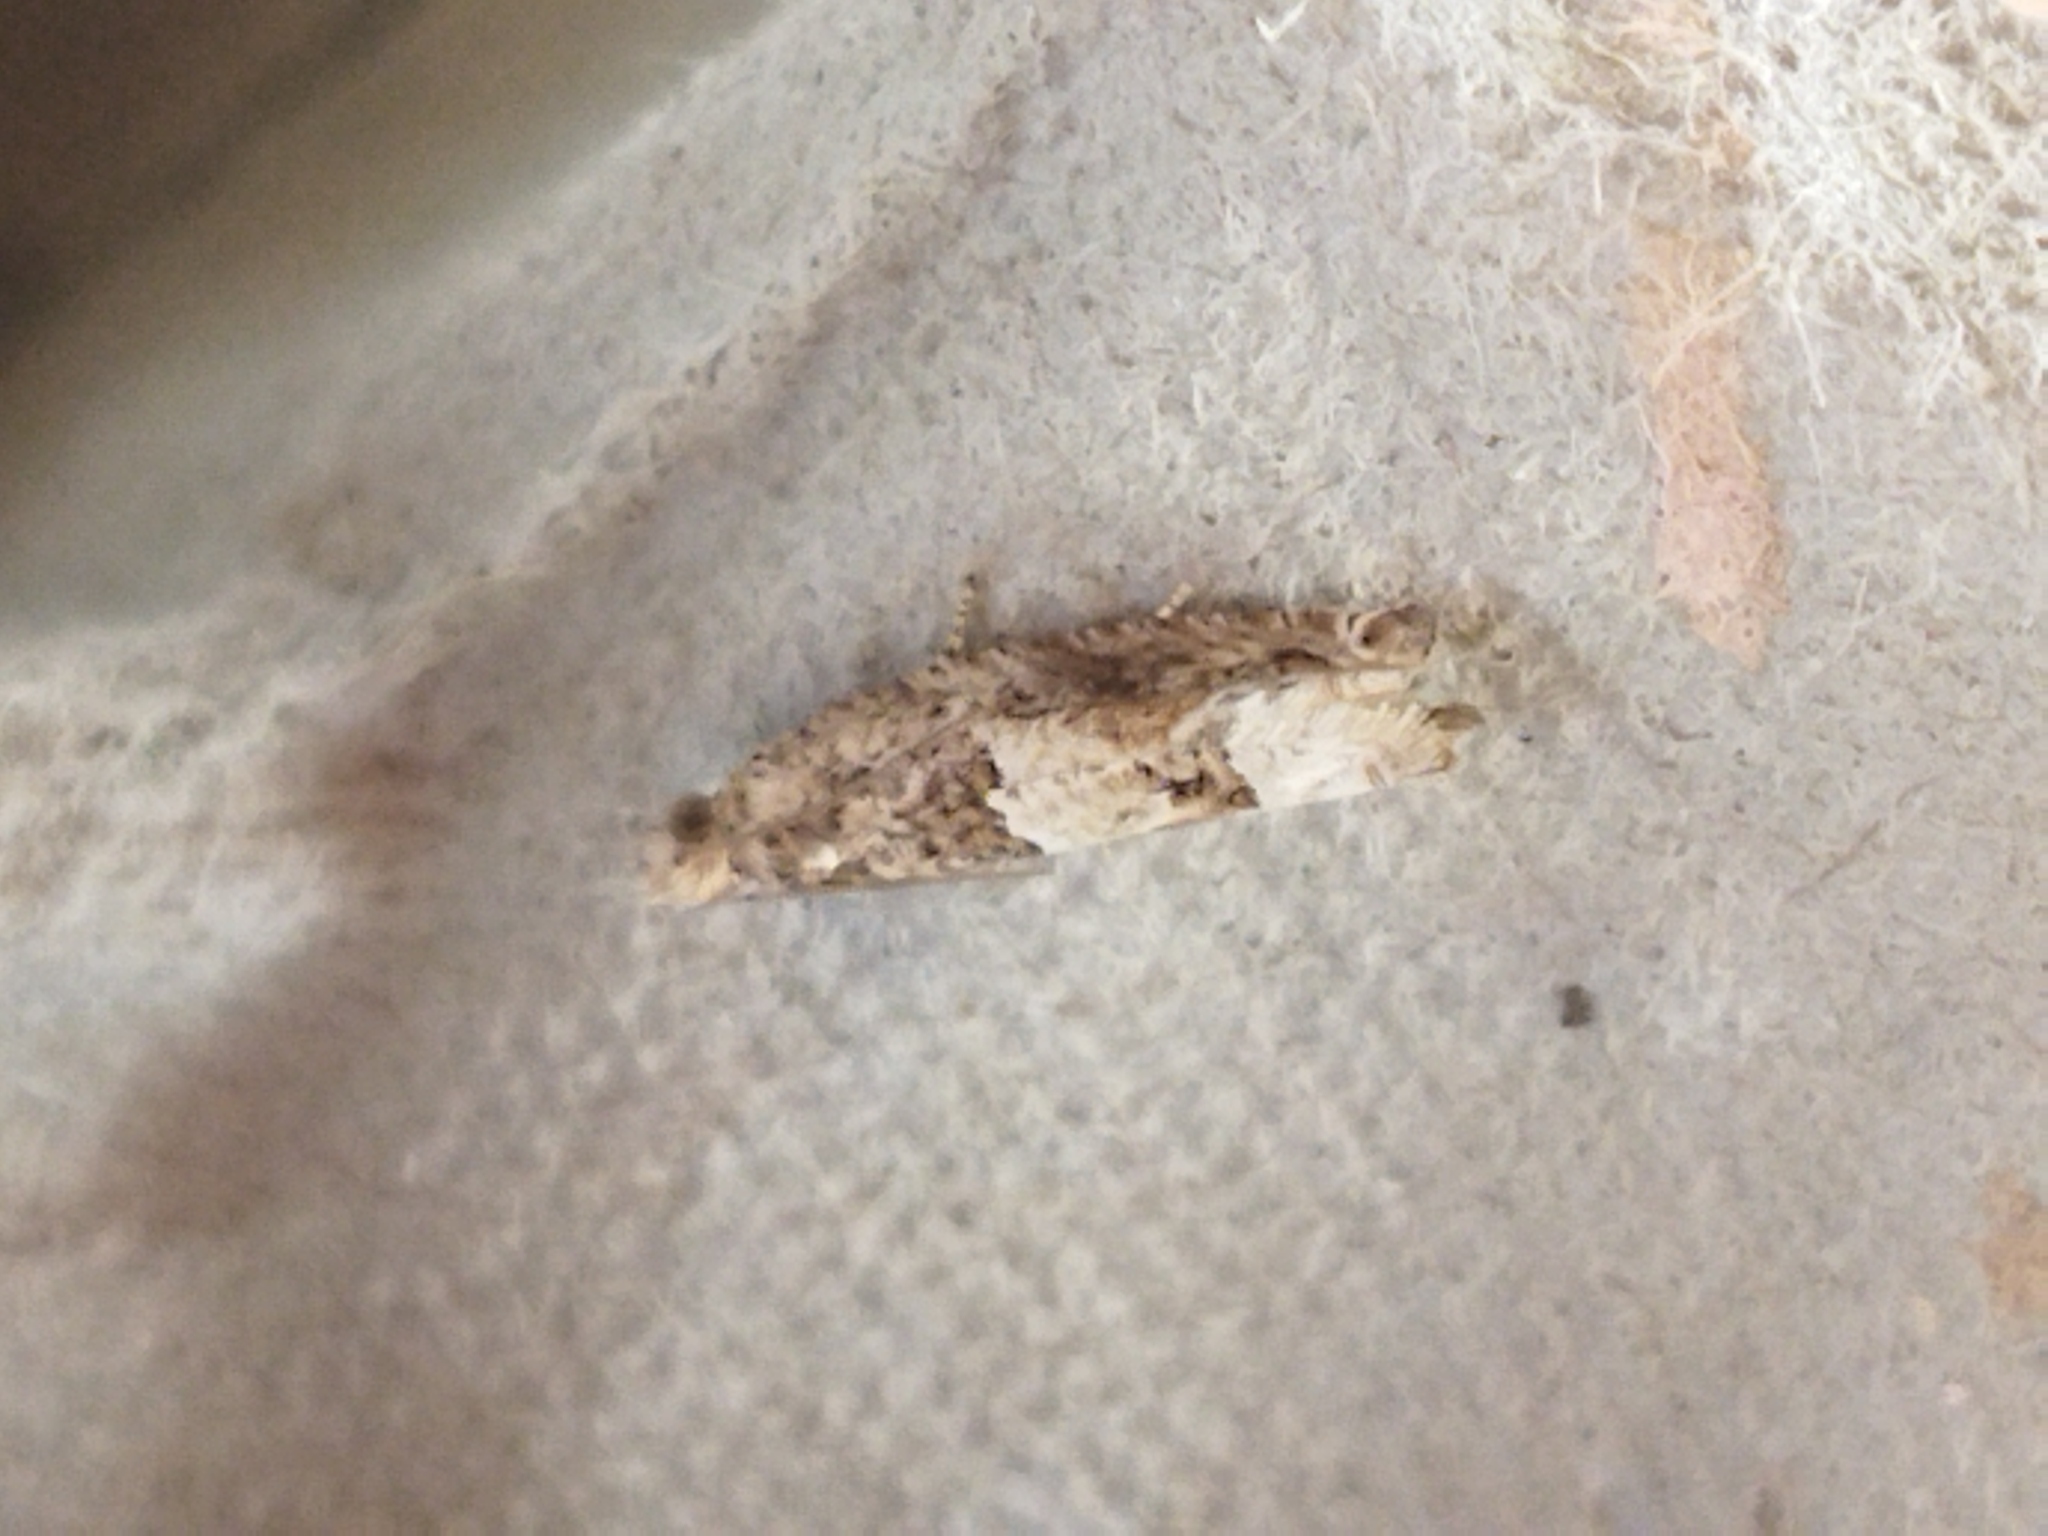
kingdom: Animalia
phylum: Arthropoda
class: Insecta
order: Lepidoptera
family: Tortricidae
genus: Crocidosema
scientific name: Crocidosema plebejana
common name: Southern bell
